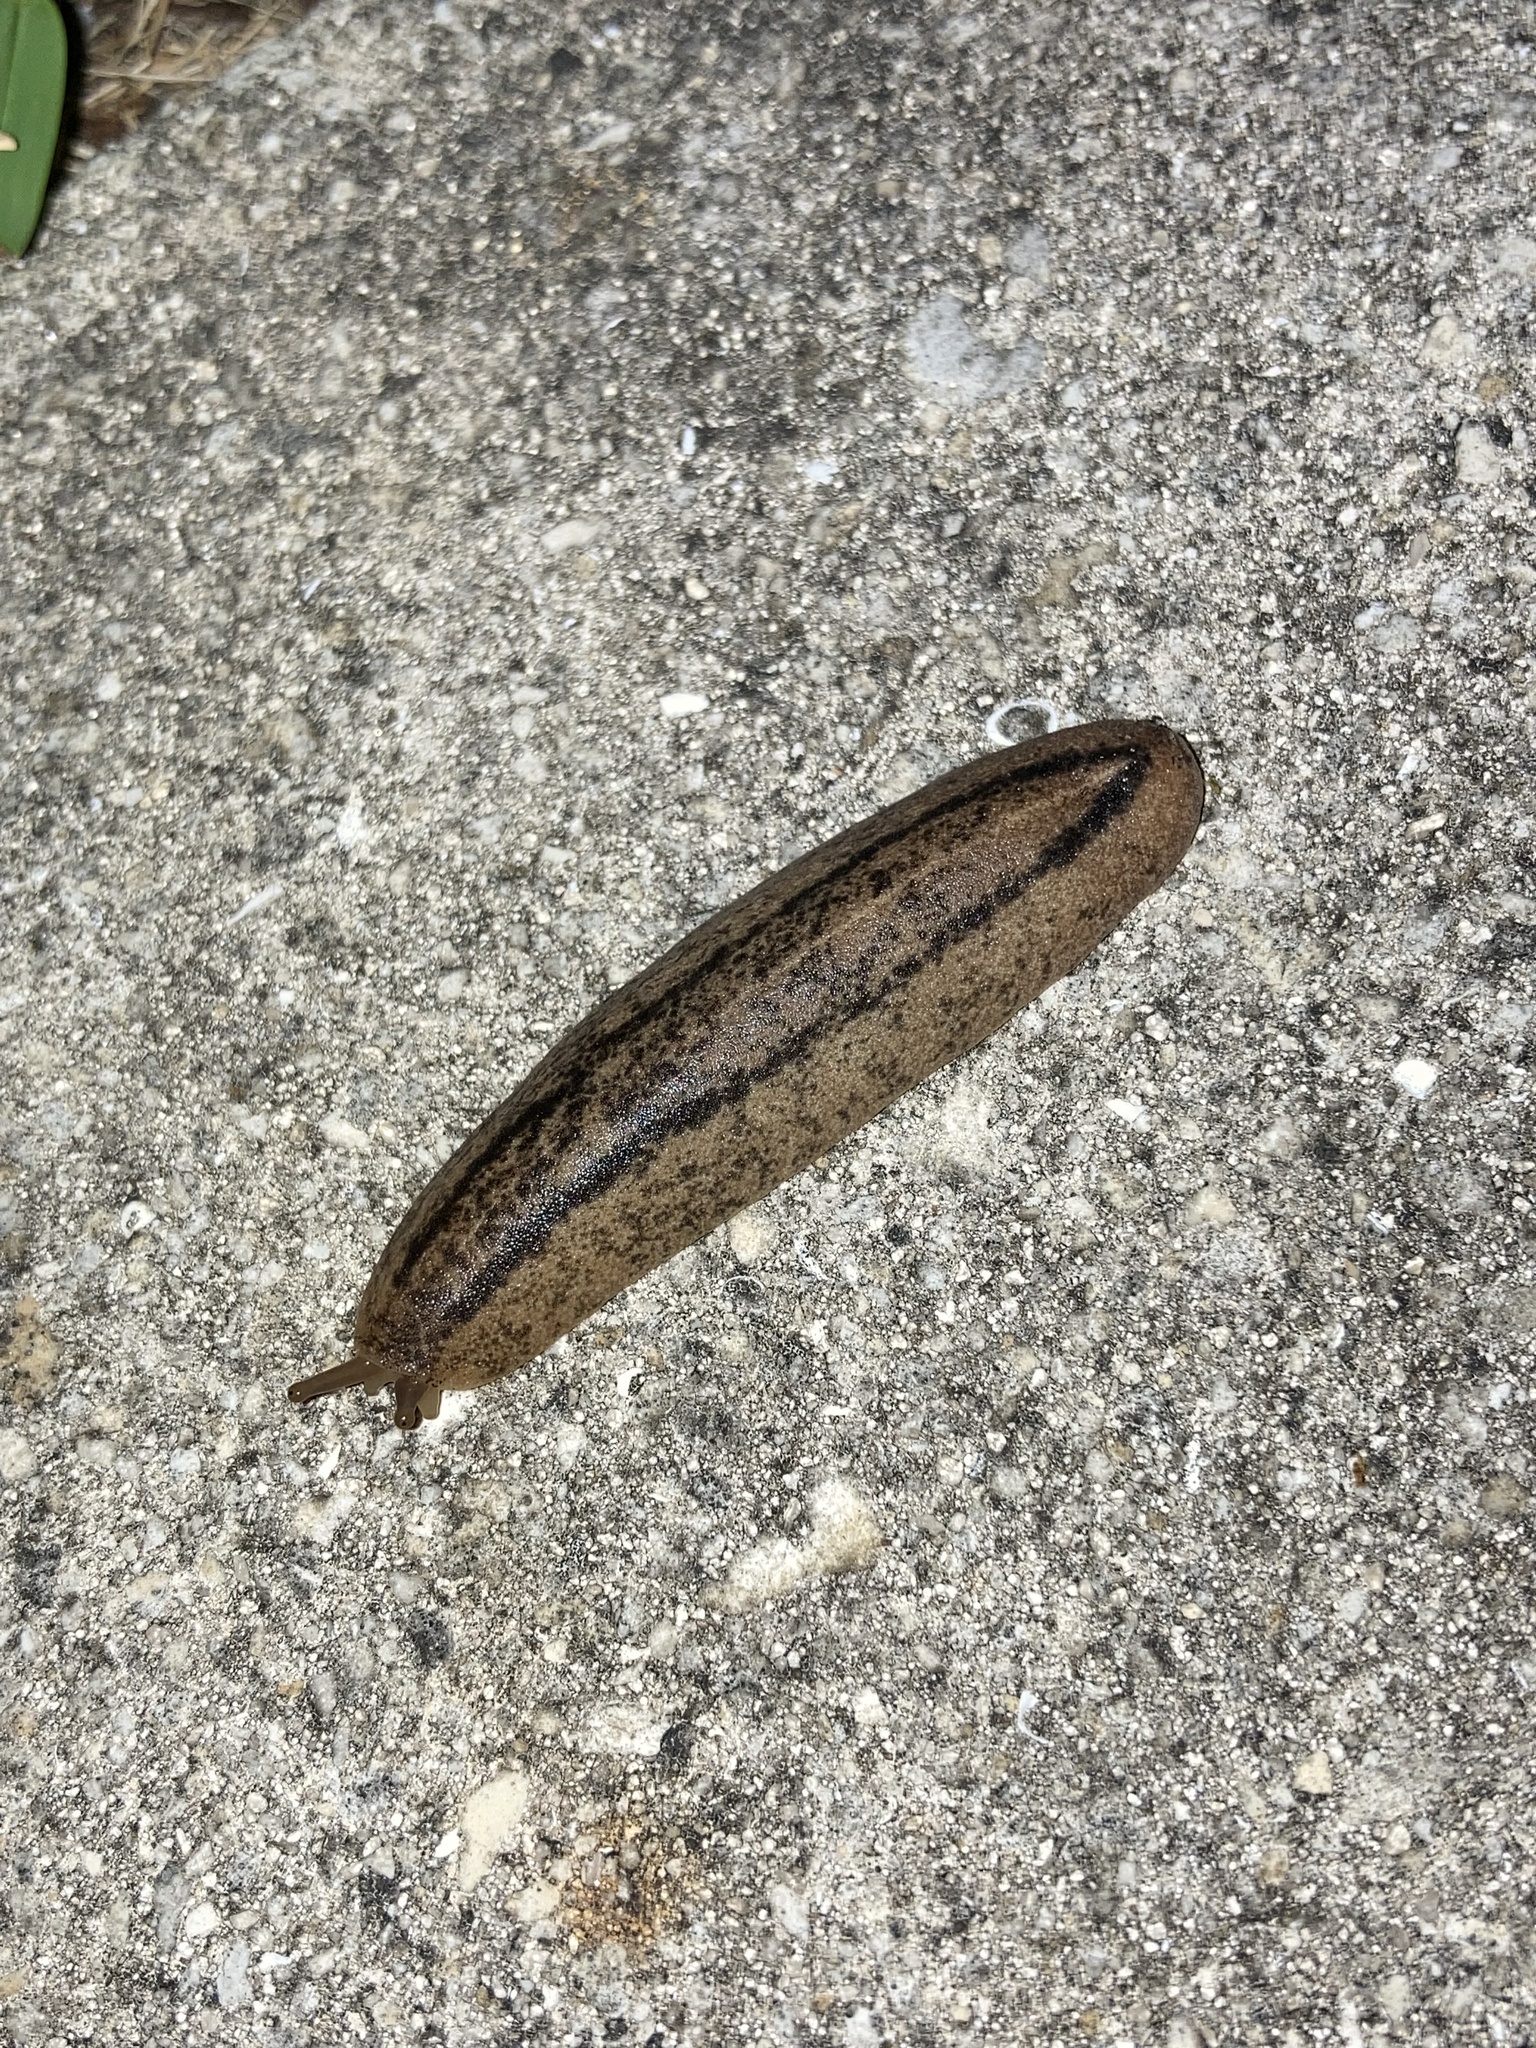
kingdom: Animalia
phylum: Mollusca
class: Gastropoda
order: Systellommatophora
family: Veronicellidae
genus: Leidyula
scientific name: Leidyula floridana
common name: Florida leatherleaf
